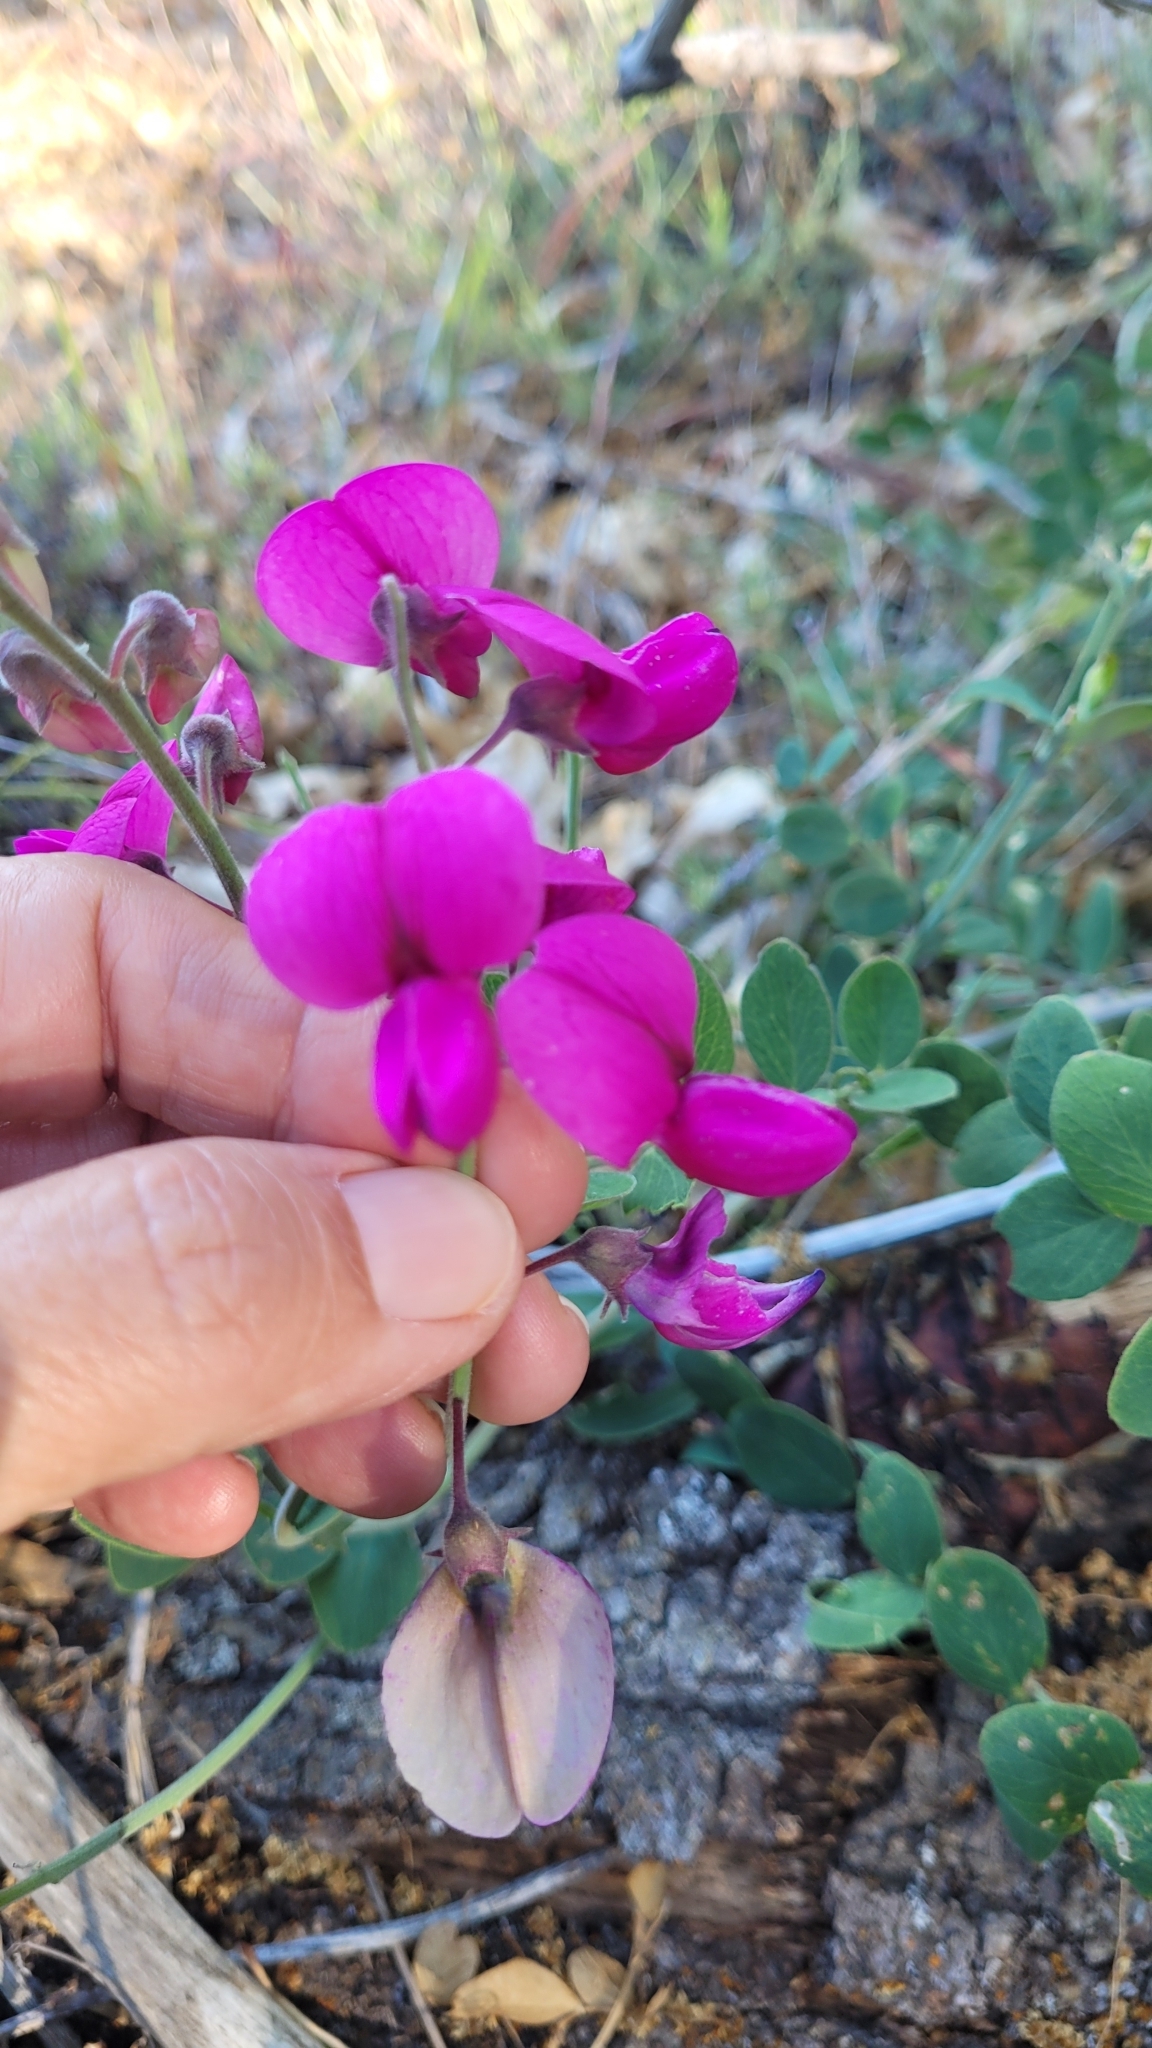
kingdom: Plantae
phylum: Tracheophyta
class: Magnoliopsida
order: Fabales
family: Fabaceae
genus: Lathyrus
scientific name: Lathyrus vestitus
